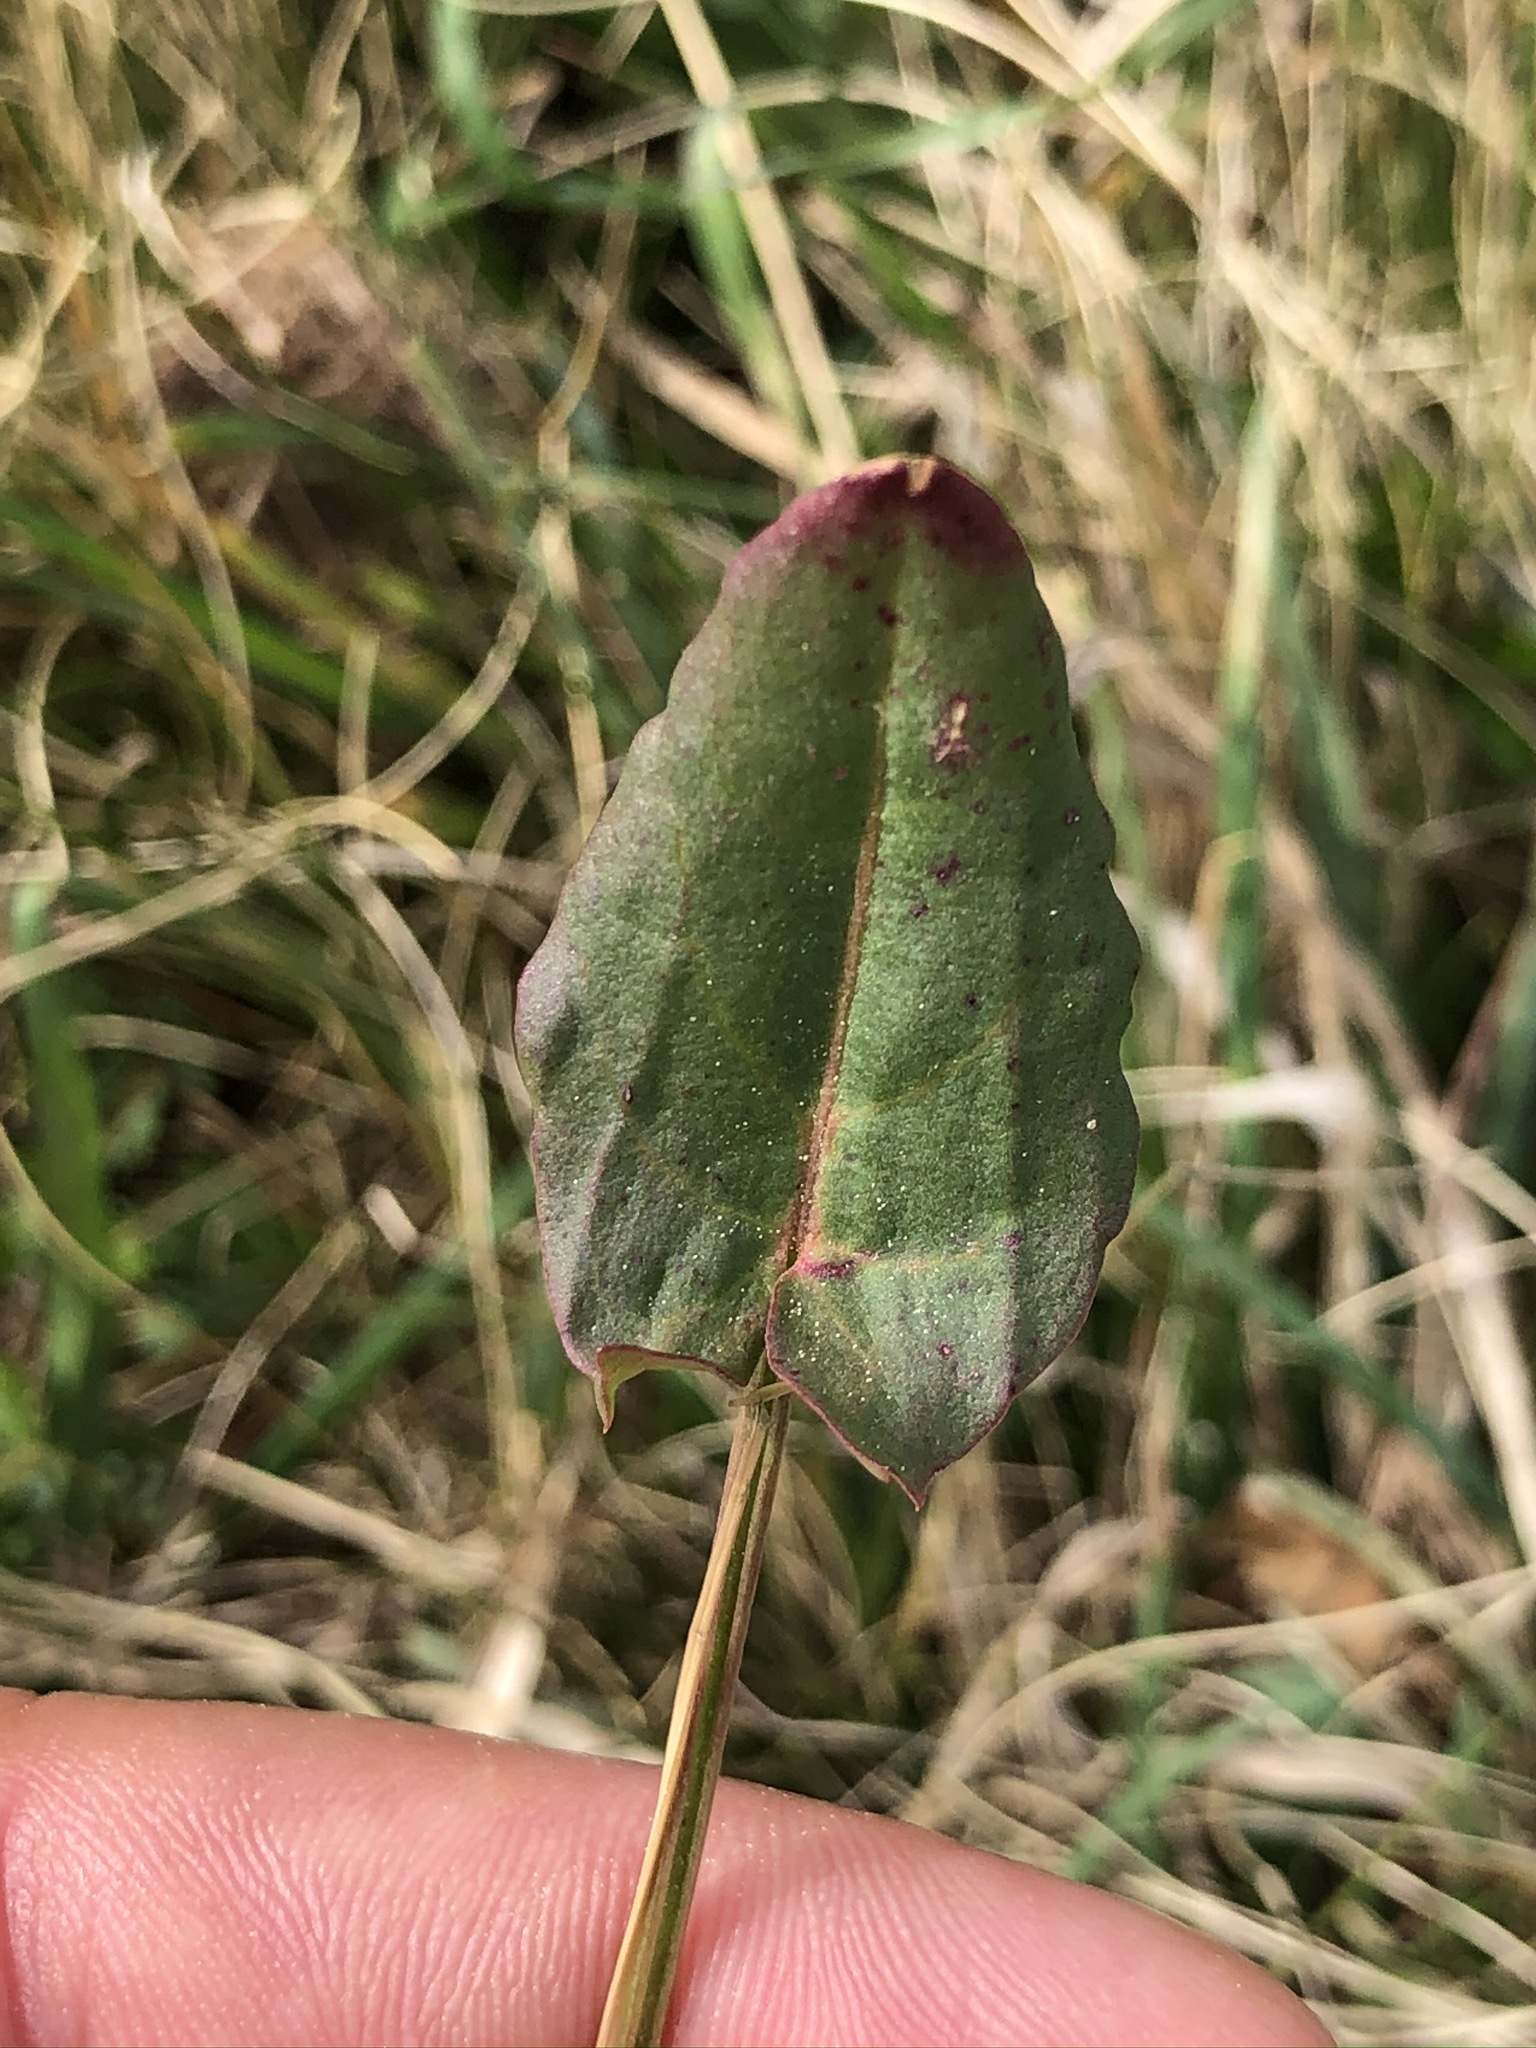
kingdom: Plantae
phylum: Tracheophyta
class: Magnoliopsida
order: Caryophyllales
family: Polygonaceae
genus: Rumex
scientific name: Rumex acetosa
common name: Garden sorrel
